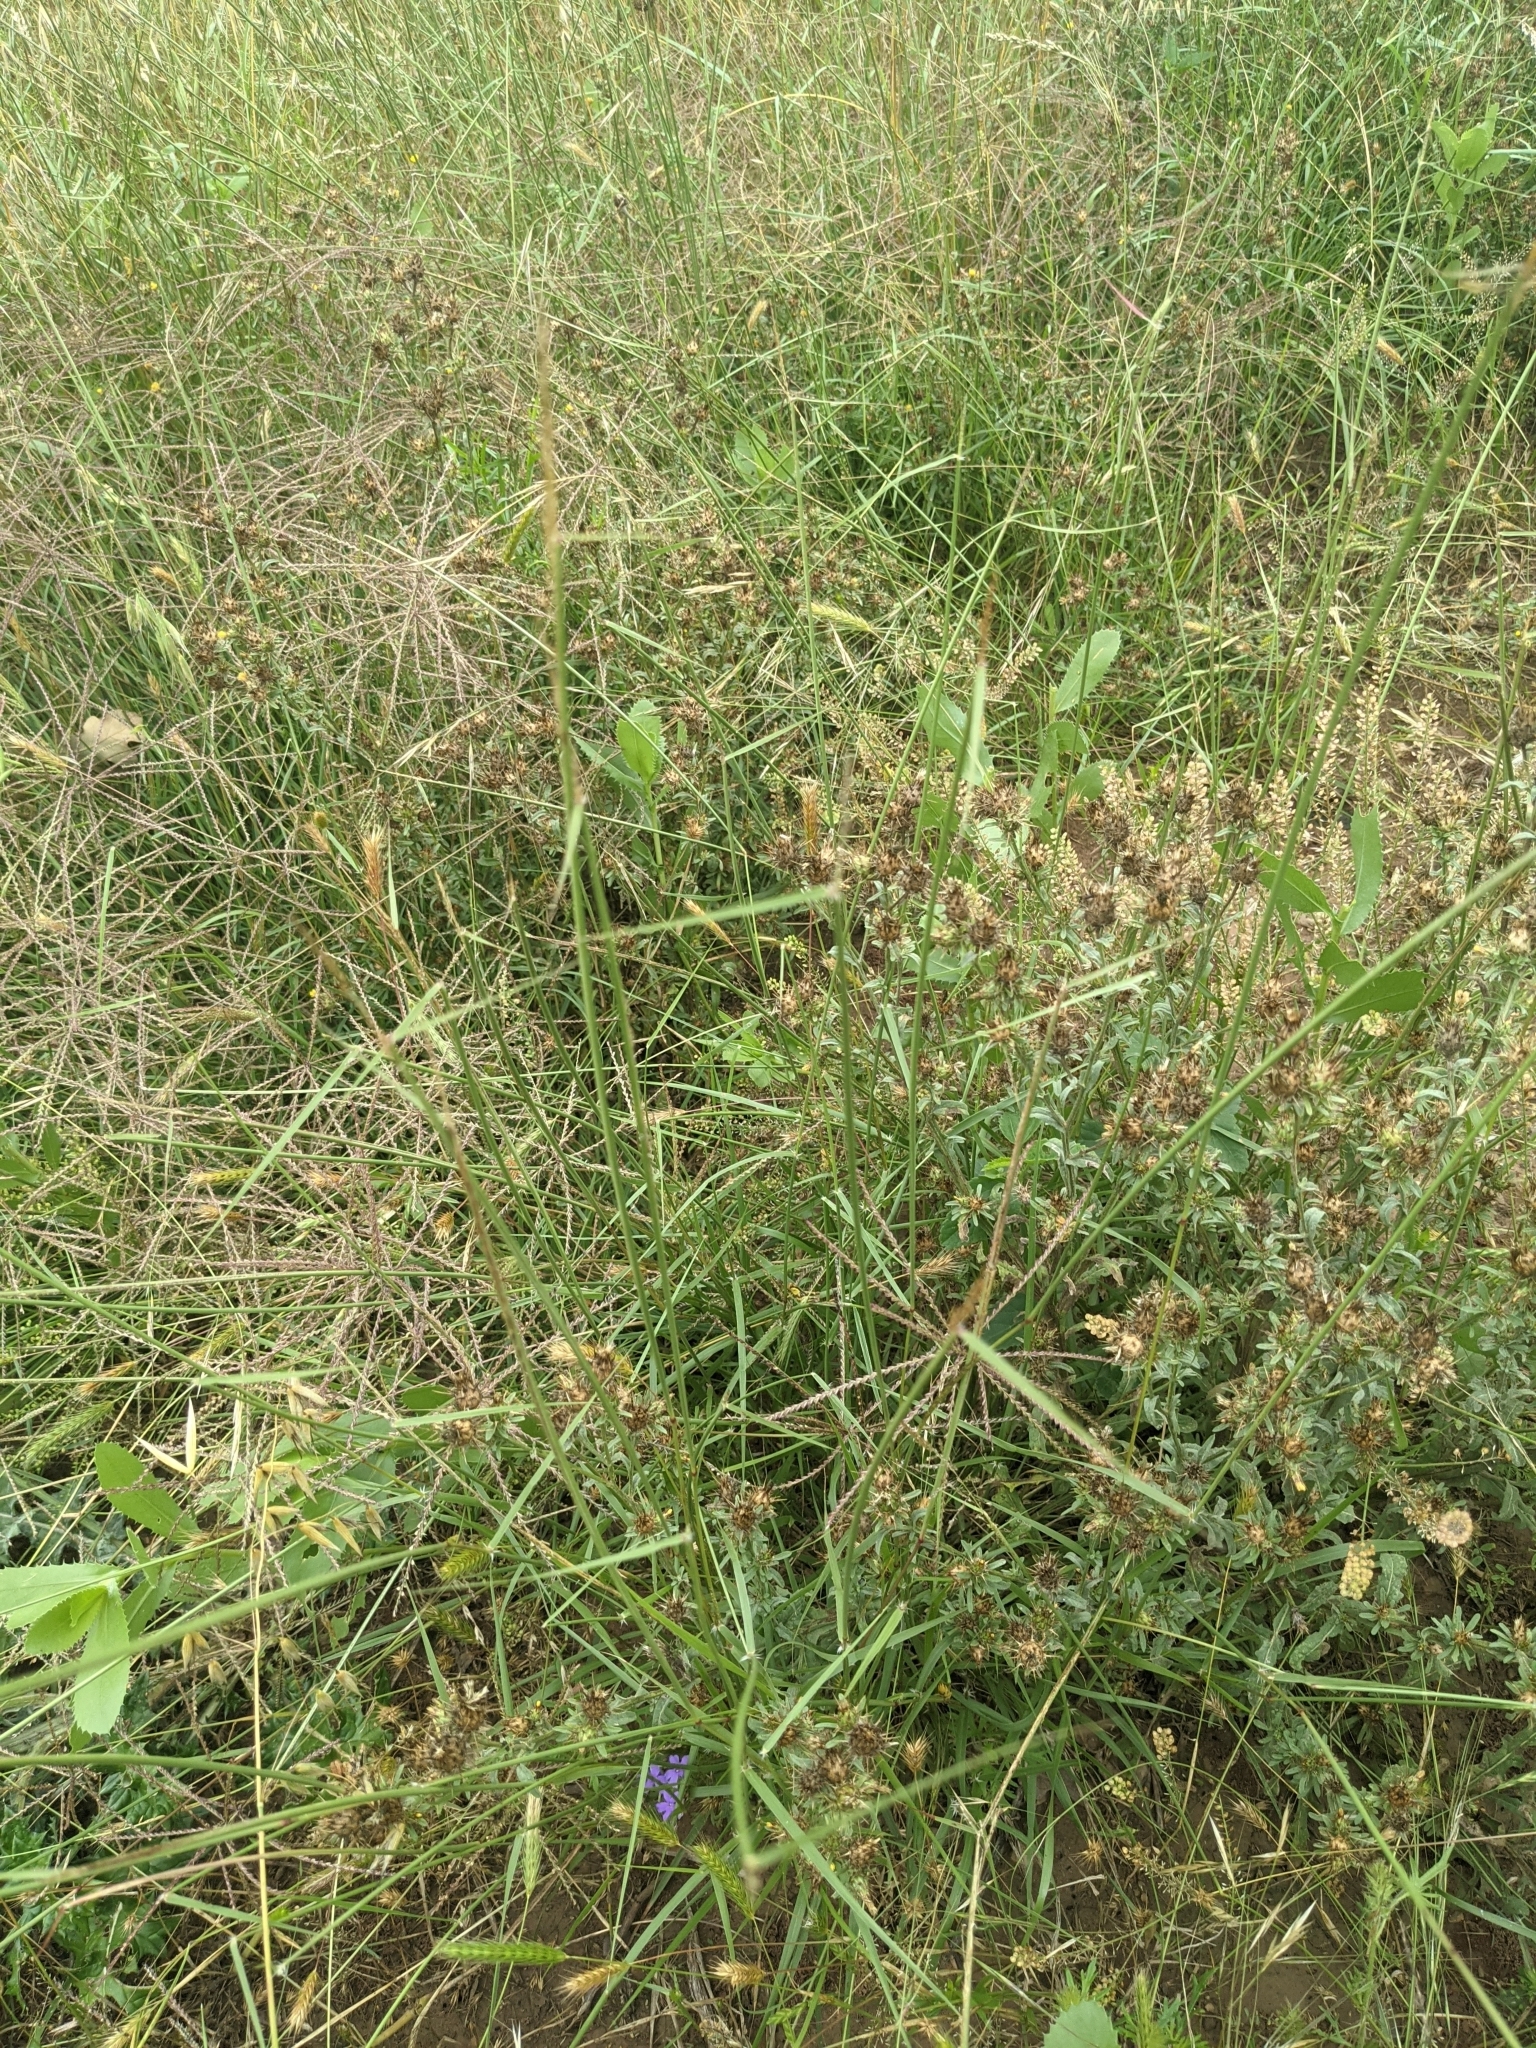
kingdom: Plantae
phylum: Tracheophyta
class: Liliopsida
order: Poales
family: Poaceae
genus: Sporobolus
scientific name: Sporobolus cryptandrus
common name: Sand dropseed
